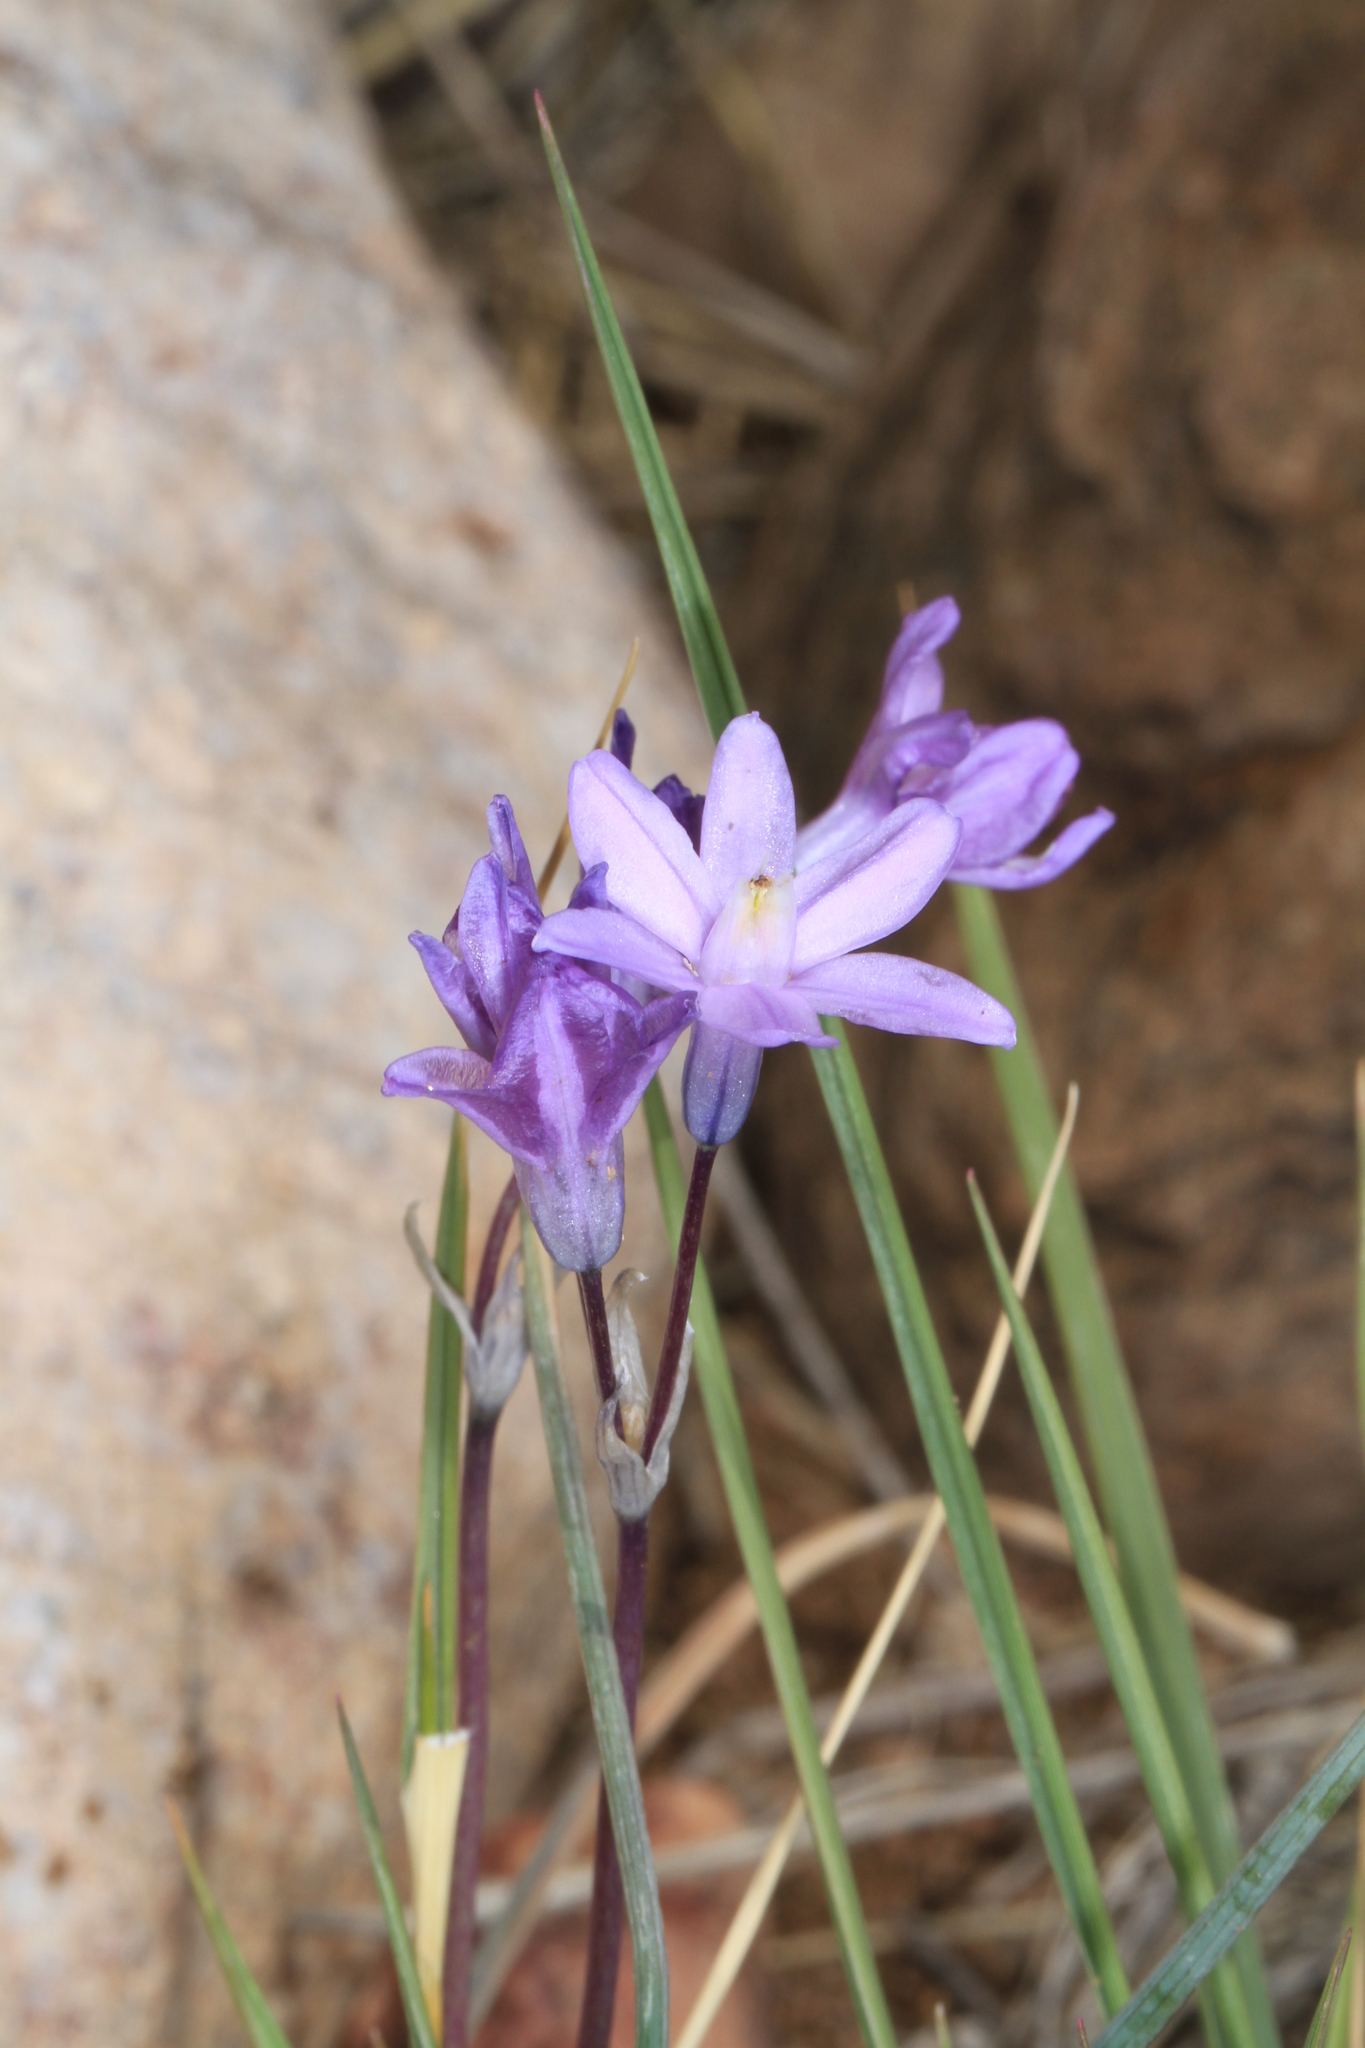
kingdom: Plantae
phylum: Tracheophyta
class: Liliopsida
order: Asparagales
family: Asparagaceae
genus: Dipterostemon
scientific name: Dipterostemon capitatus
